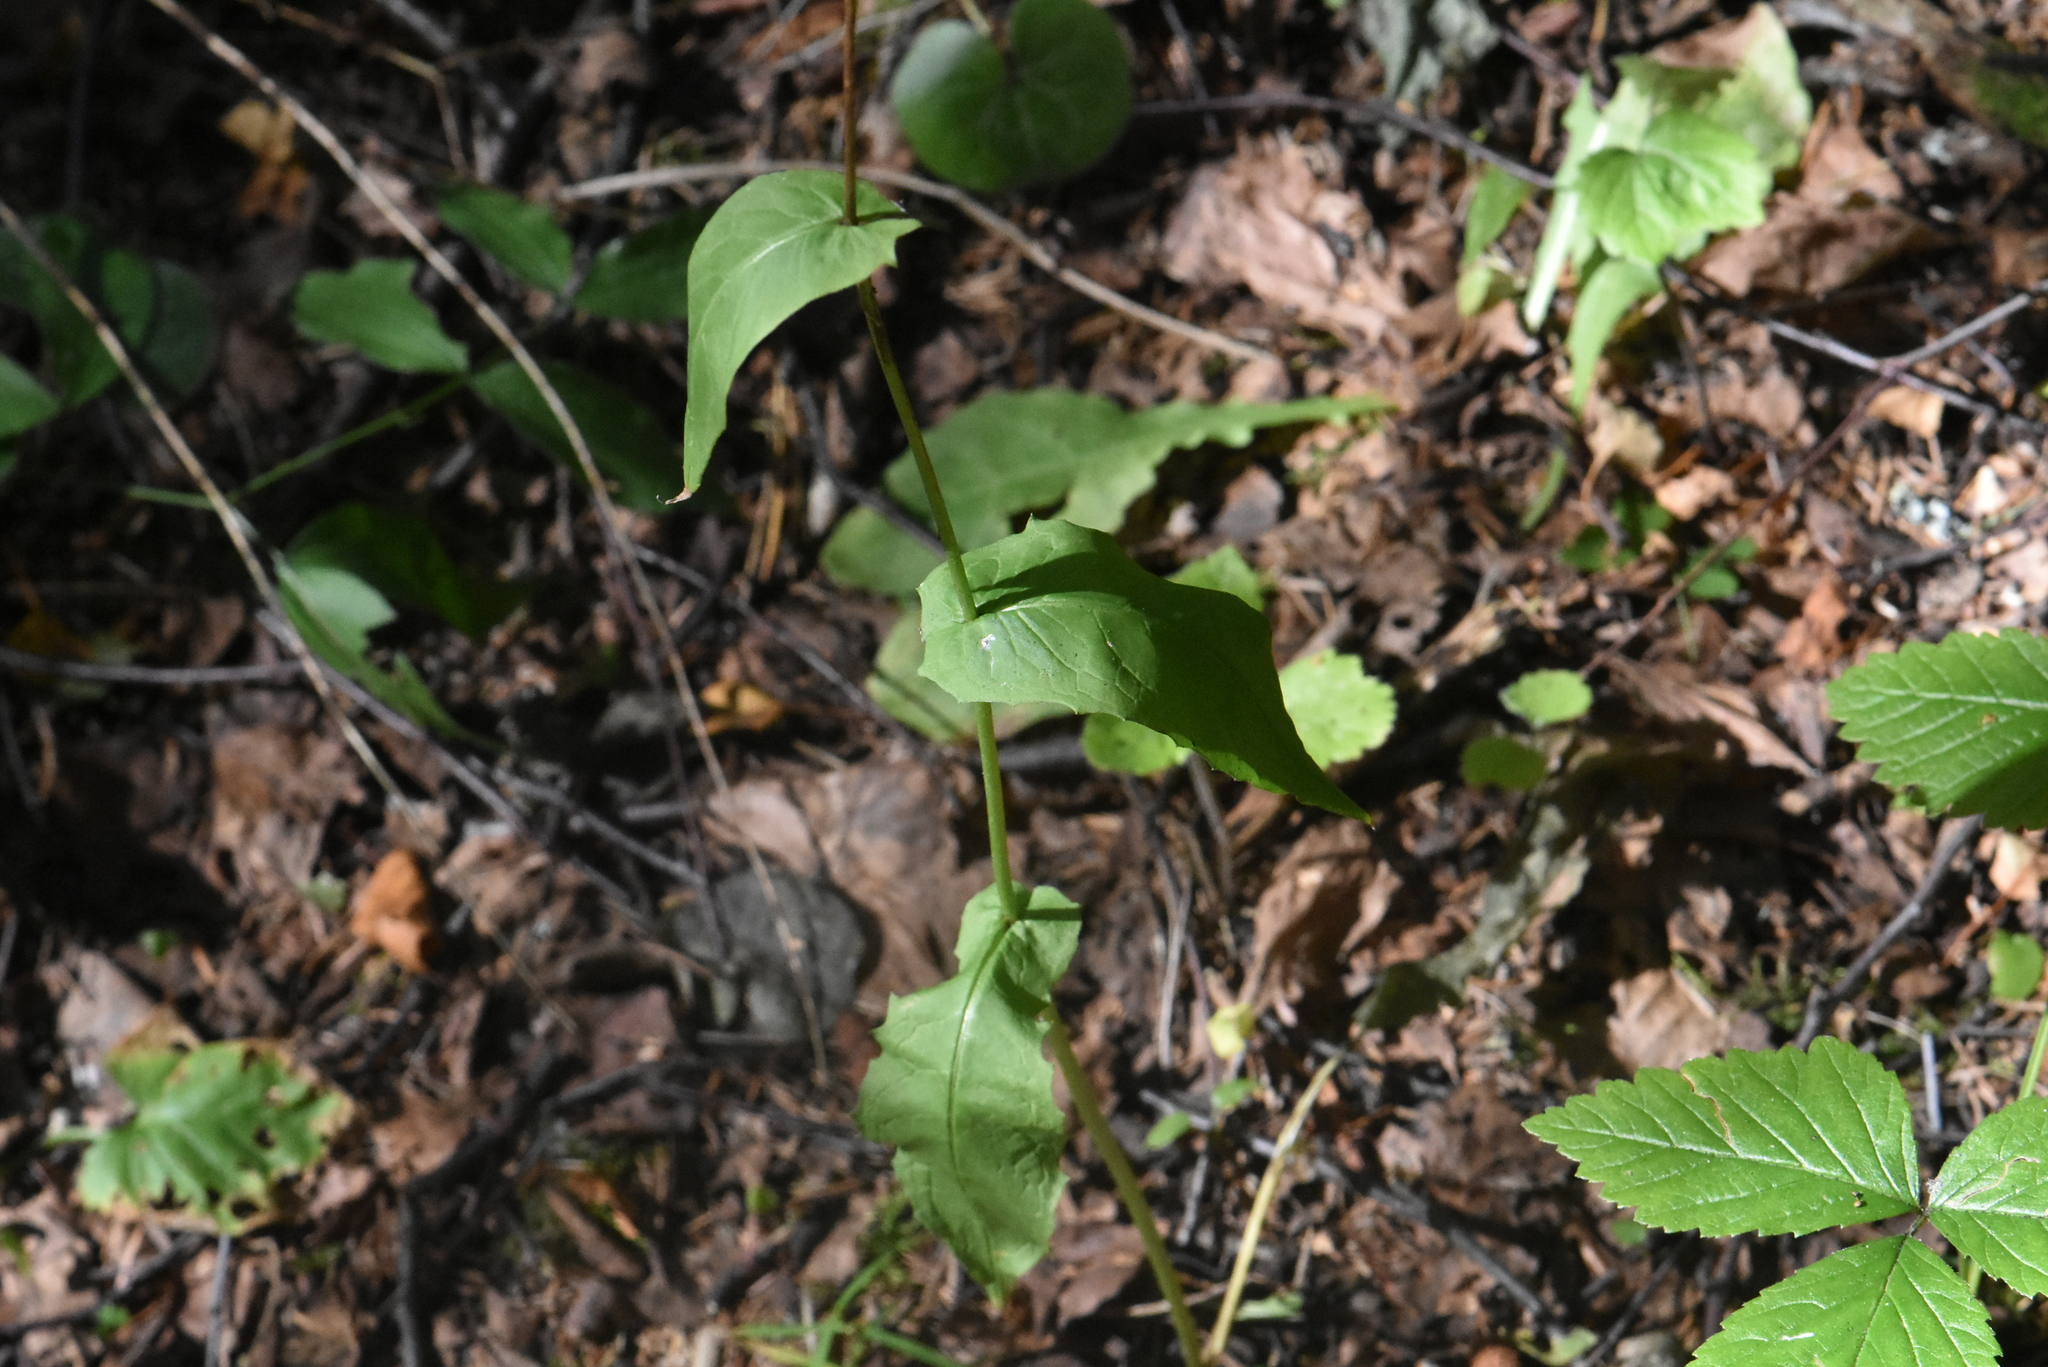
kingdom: Plantae
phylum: Tracheophyta
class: Magnoliopsida
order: Asterales
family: Asteraceae
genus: Crepis
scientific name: Crepis paludosa
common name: Marsh hawk's-beard
